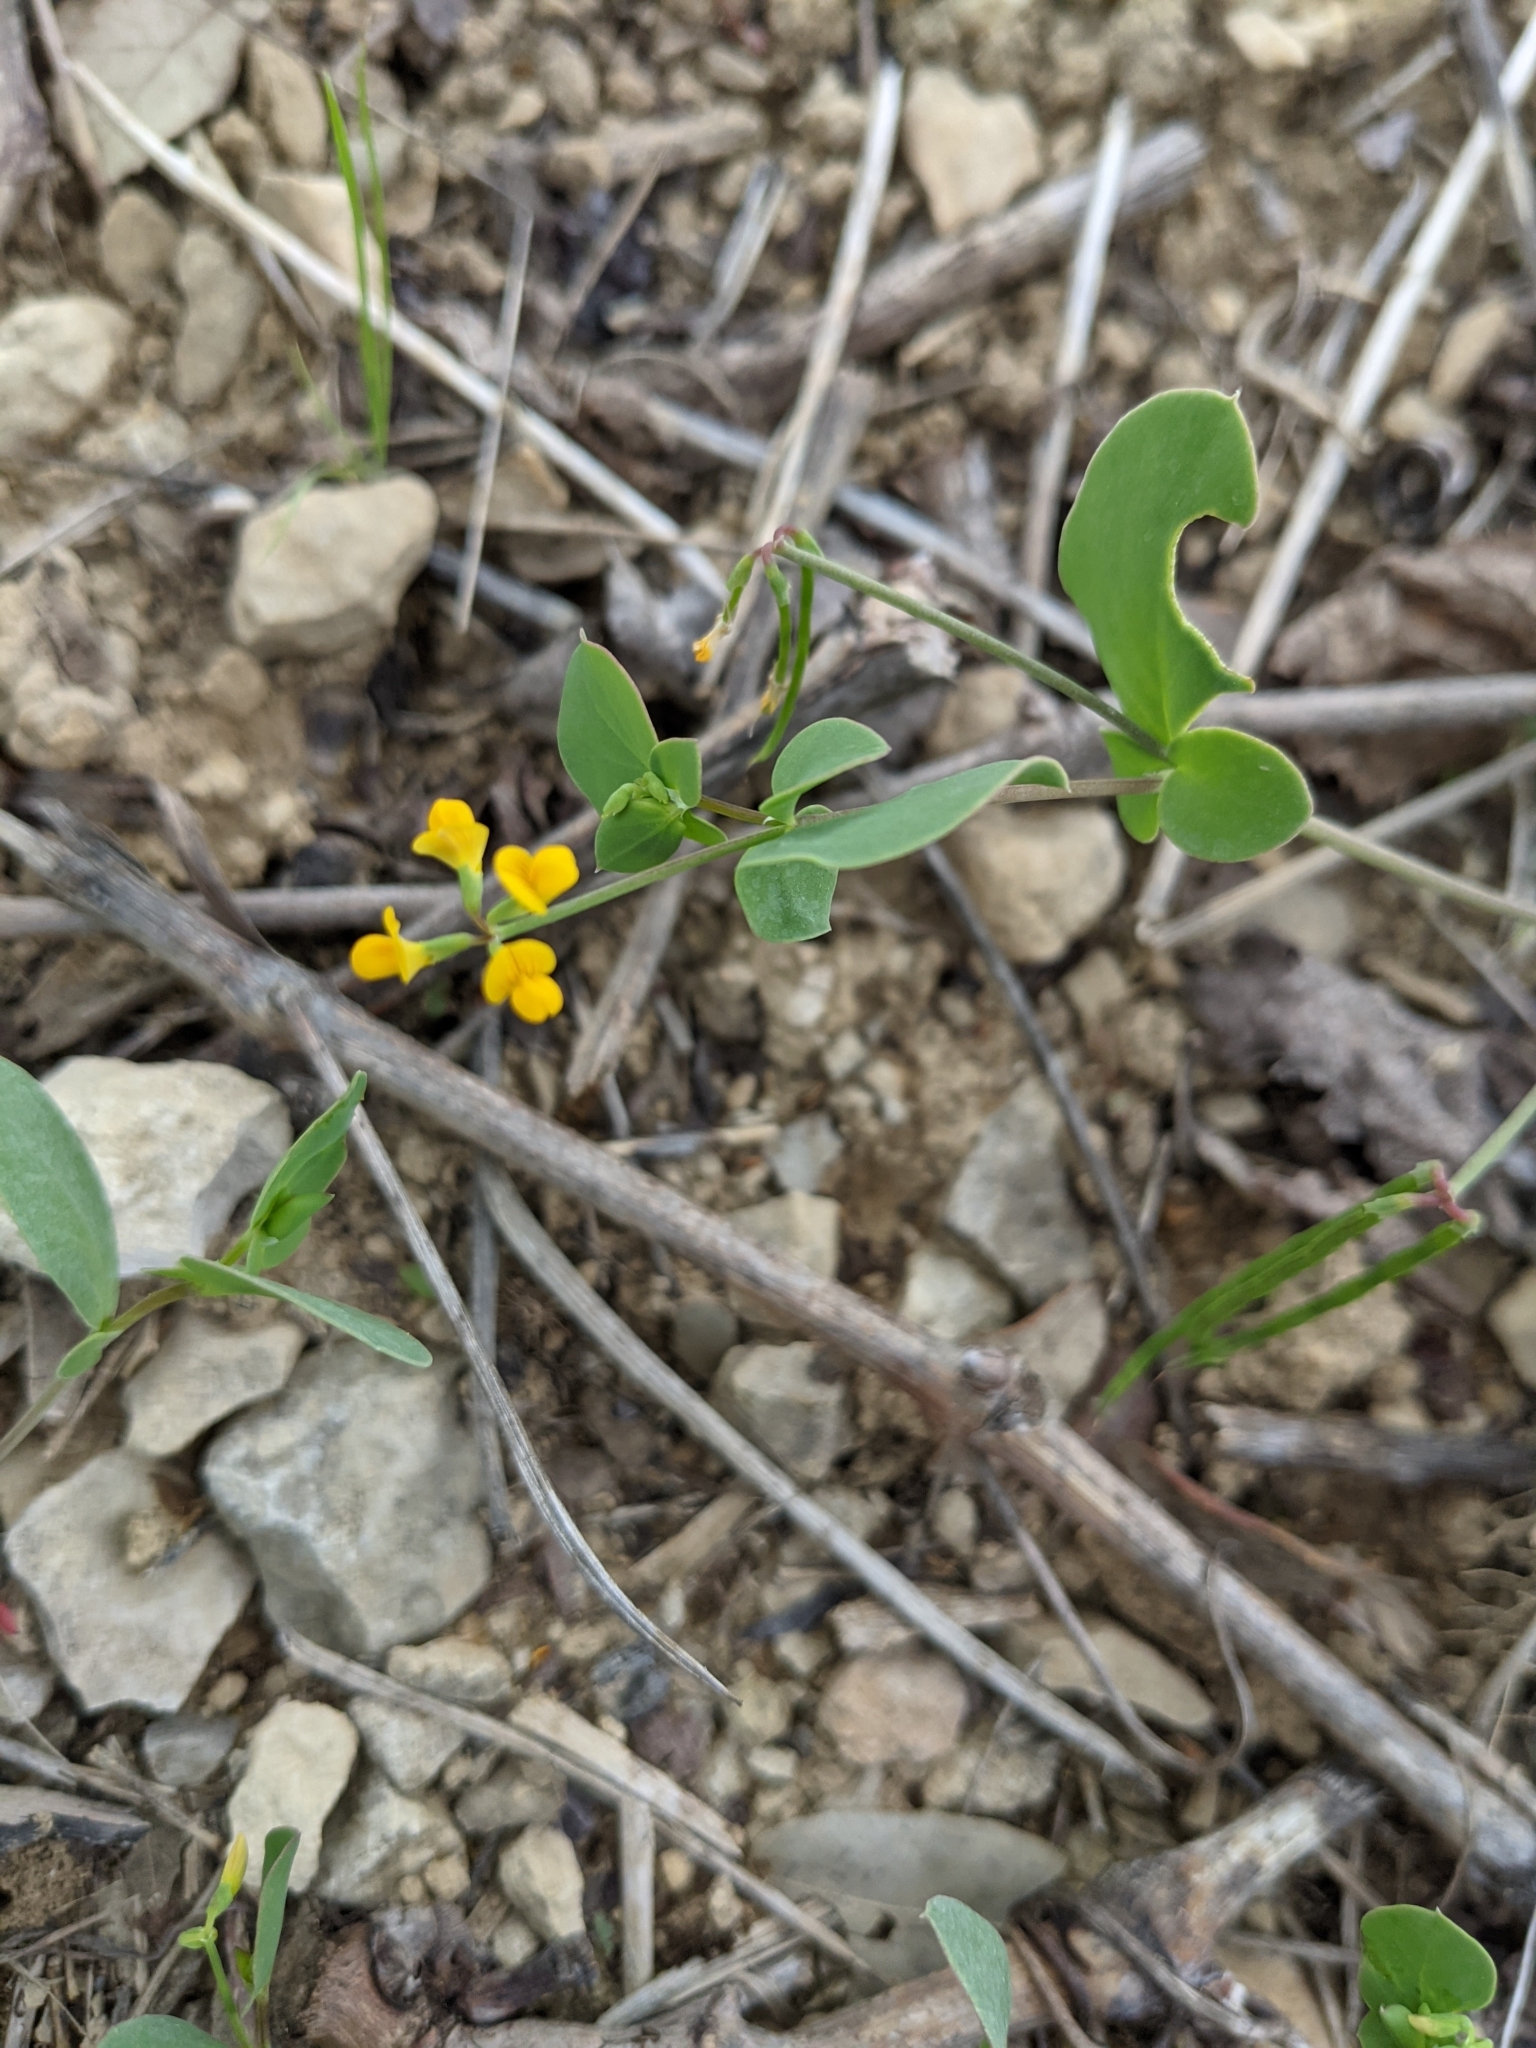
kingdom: Plantae
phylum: Tracheophyta
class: Magnoliopsida
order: Fabales
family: Fabaceae
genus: Coronilla
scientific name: Coronilla scorpioides
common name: Annual scorpion-vetch
